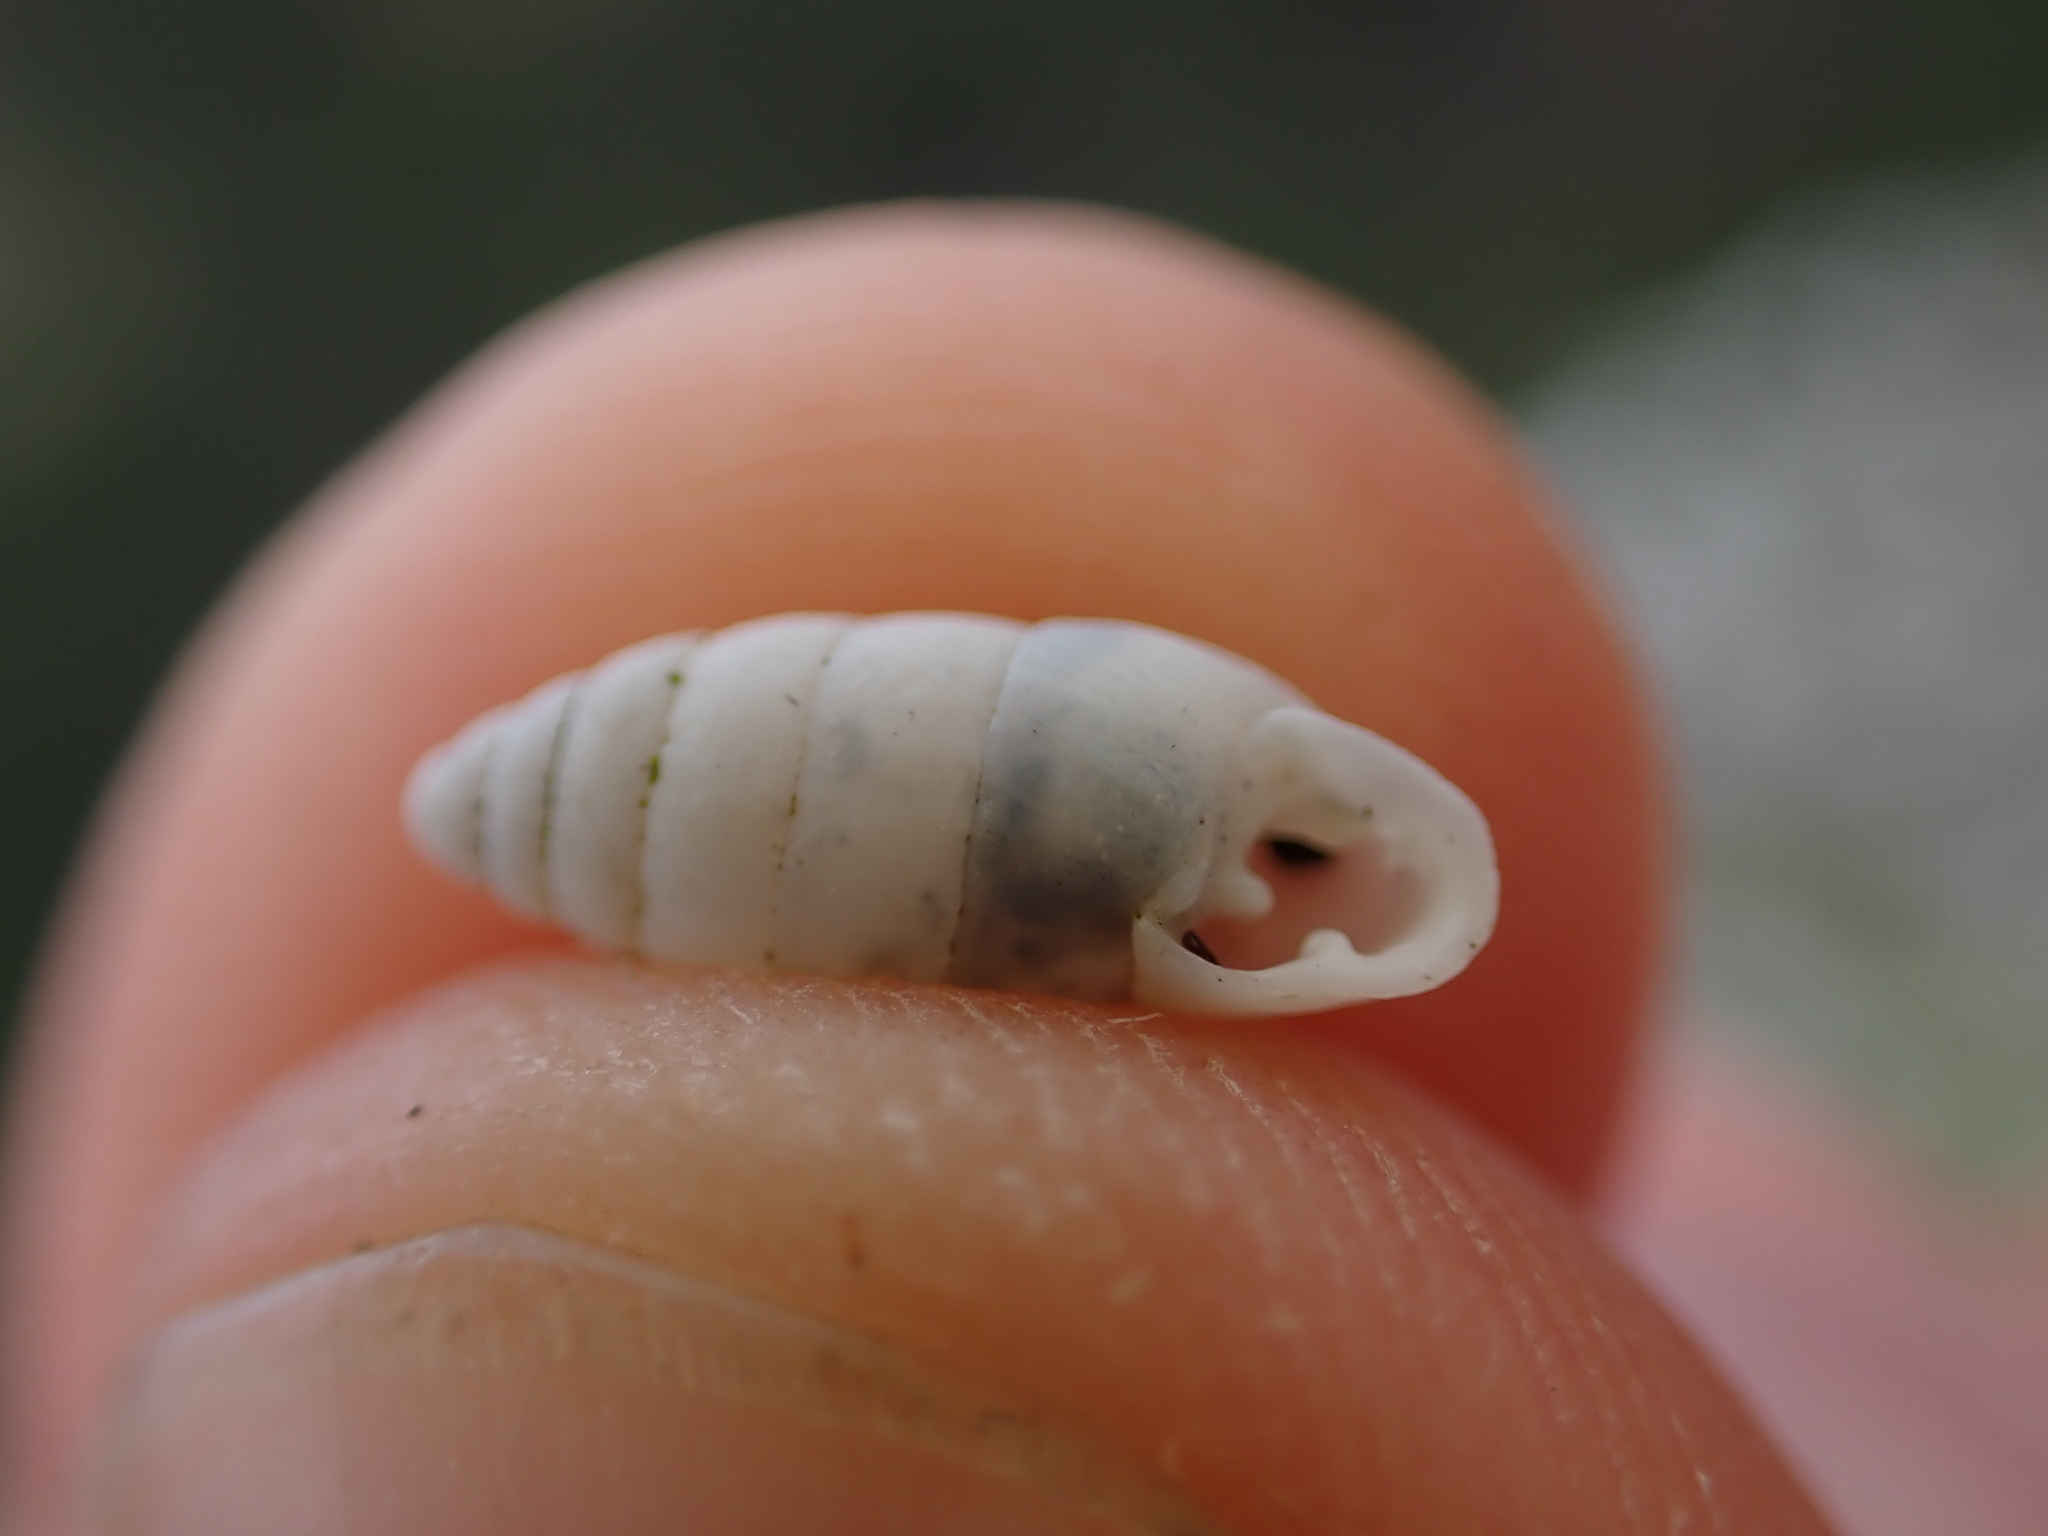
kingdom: Animalia
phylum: Mollusca
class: Gastropoda
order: Stylommatophora
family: Enidae
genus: Jaminia
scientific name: Jaminia quadridens
